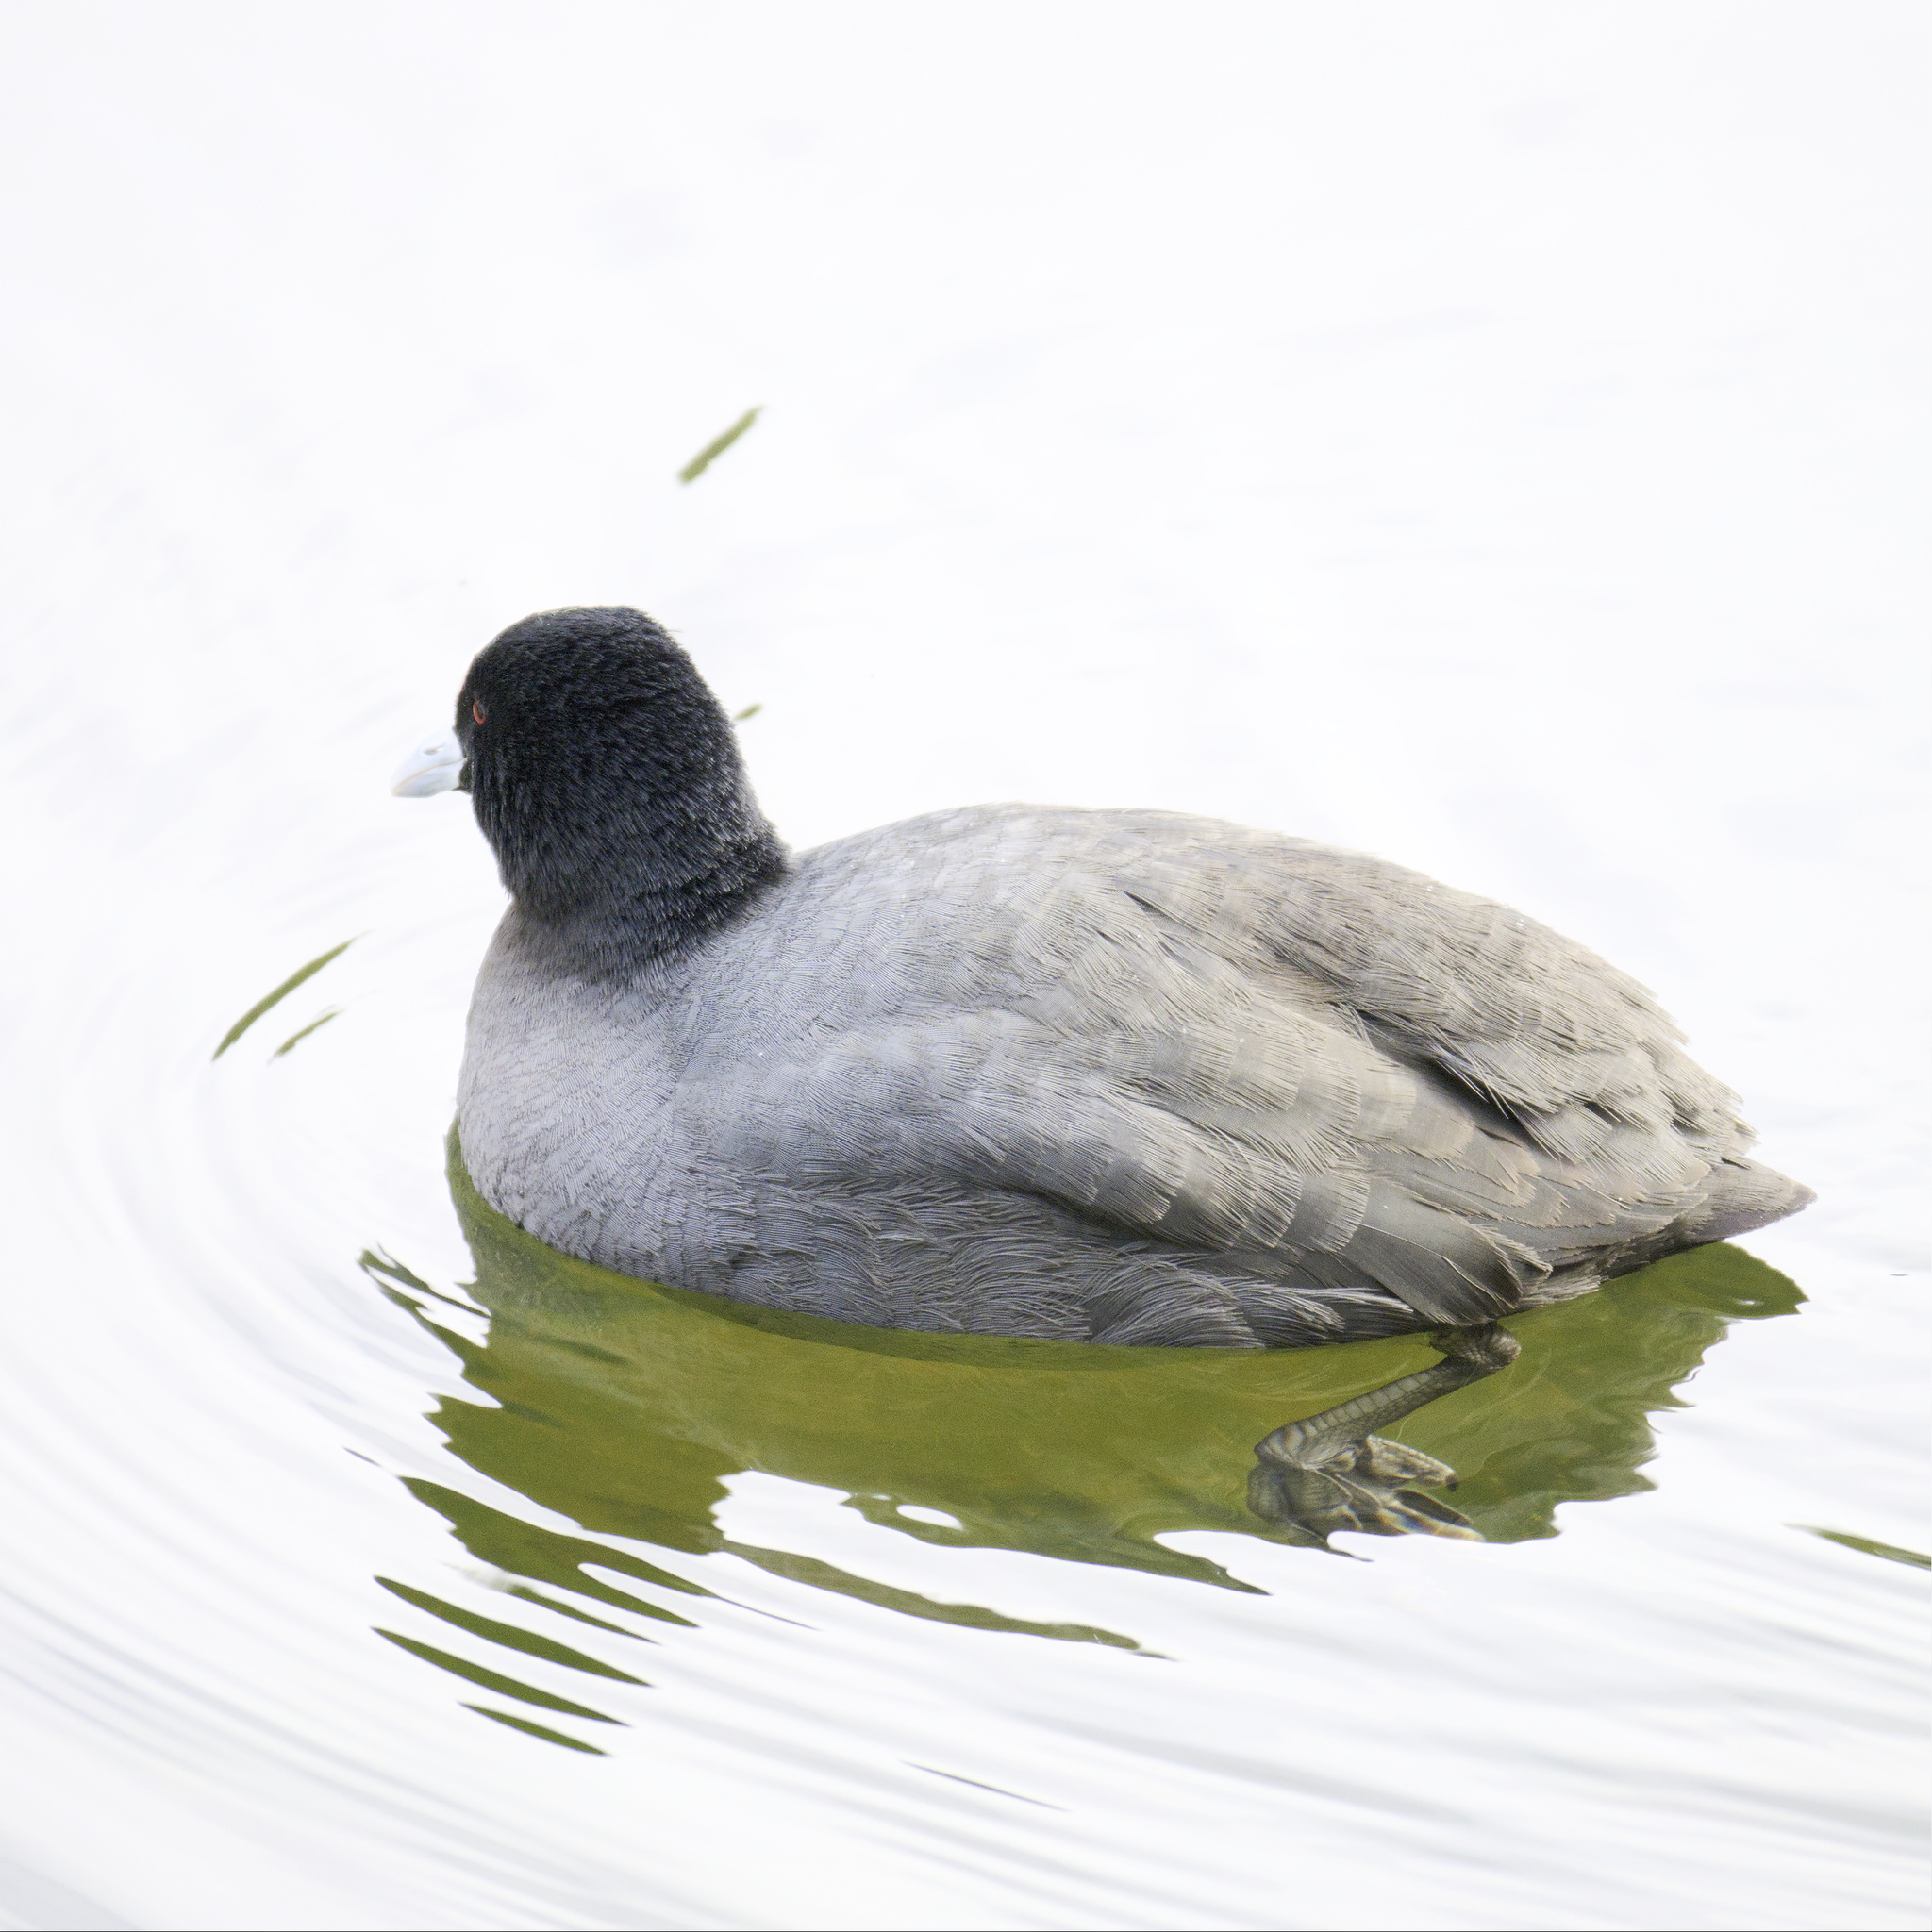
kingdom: Animalia
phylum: Chordata
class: Aves
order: Gruiformes
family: Rallidae
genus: Fulica
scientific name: Fulica atra
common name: Eurasian coot
